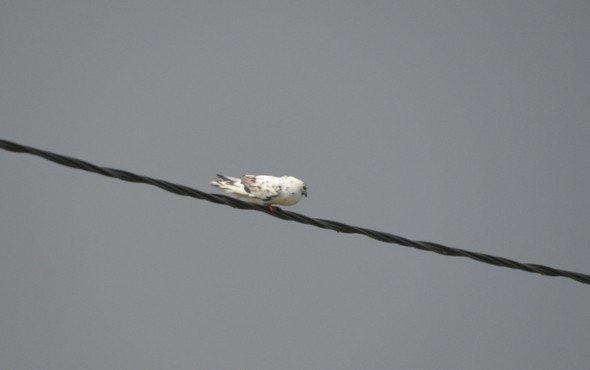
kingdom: Animalia
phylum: Chordata
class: Aves
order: Columbiformes
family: Columbidae
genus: Columba
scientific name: Columba livia
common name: Rock pigeon
